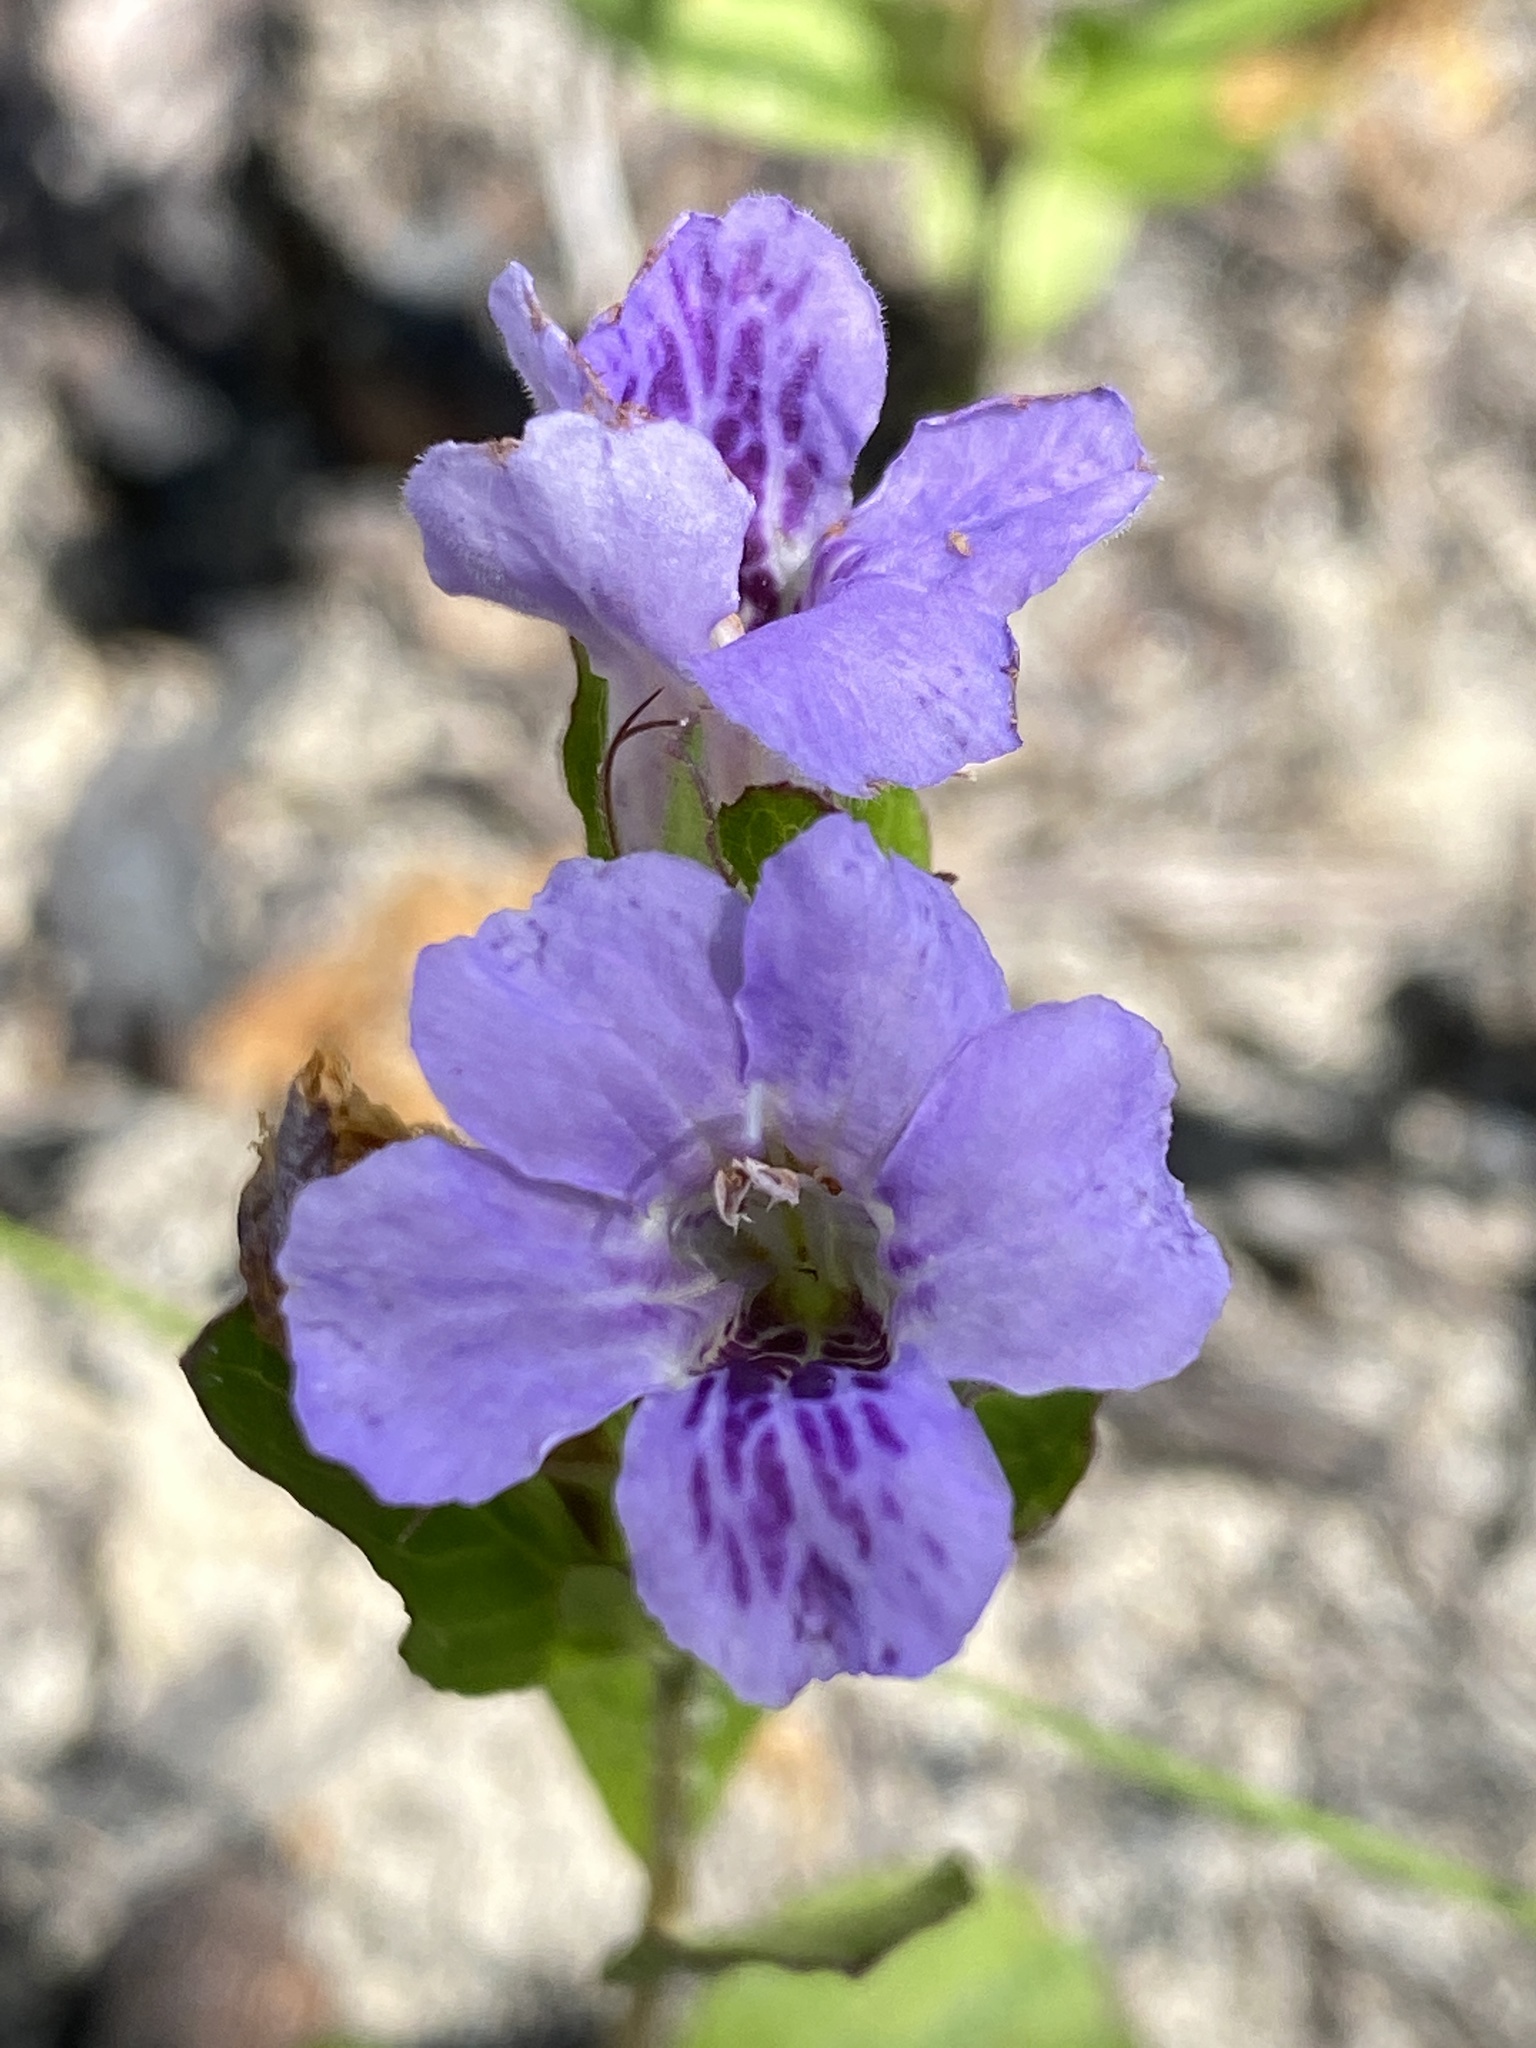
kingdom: Plantae
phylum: Tracheophyta
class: Magnoliopsida
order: Lamiales
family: Acanthaceae
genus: Dyschoriste
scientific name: Dyschoriste oblongifolia
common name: Blue twinflower
